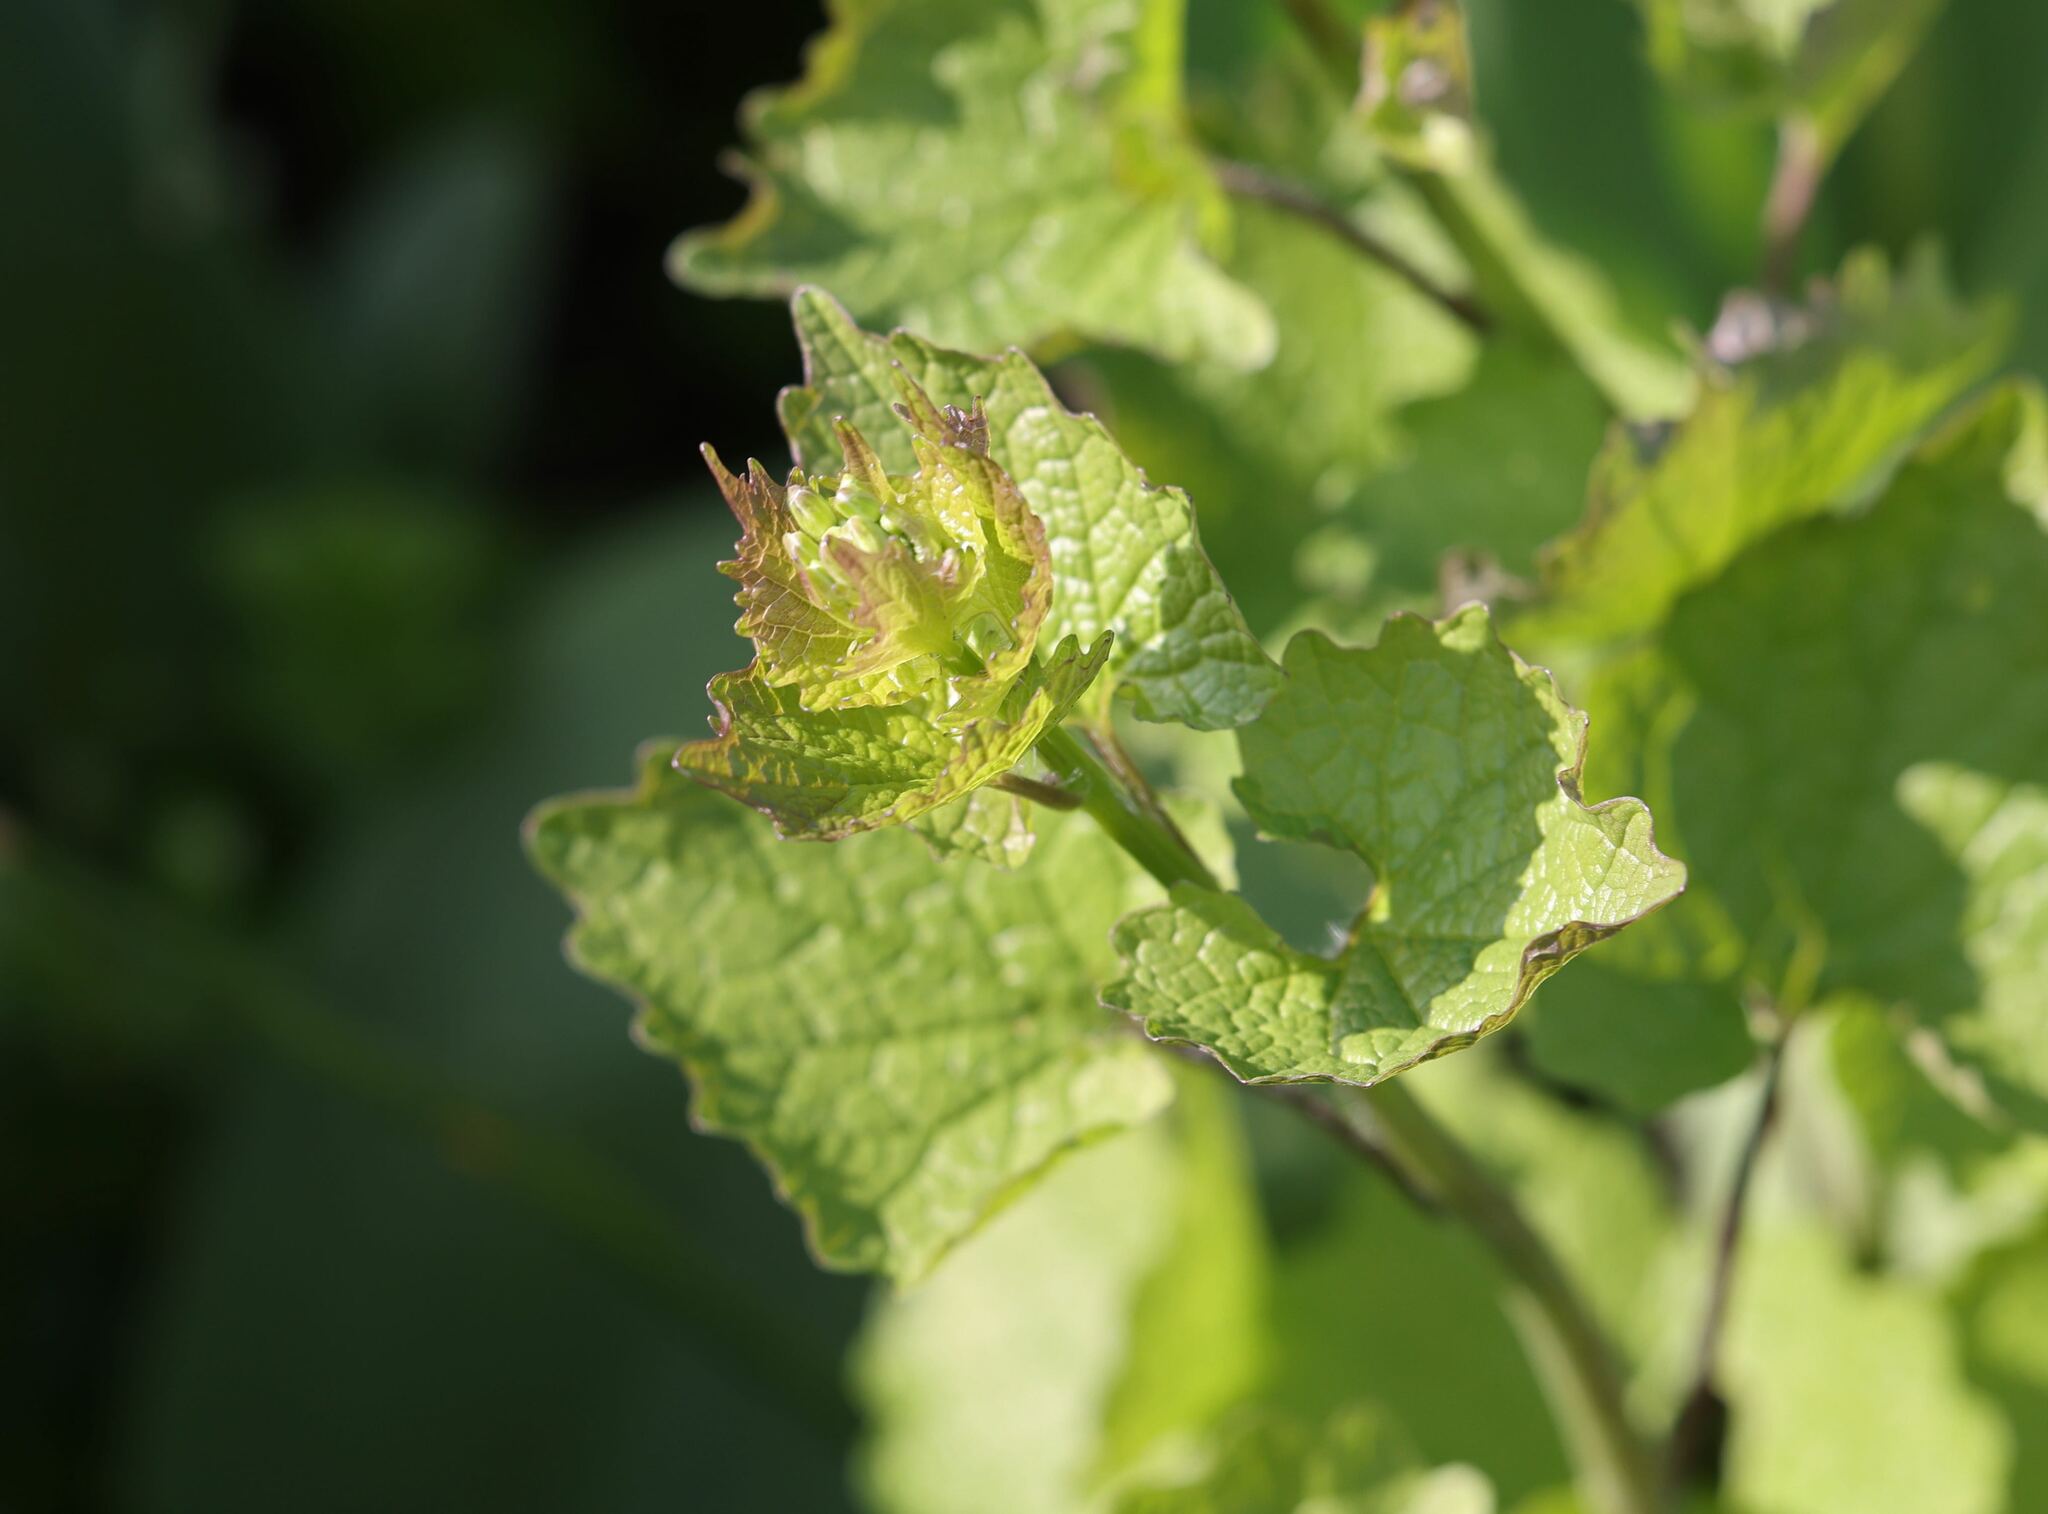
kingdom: Plantae
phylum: Tracheophyta
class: Magnoliopsida
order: Brassicales
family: Brassicaceae
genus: Alliaria
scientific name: Alliaria petiolata
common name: Garlic mustard
